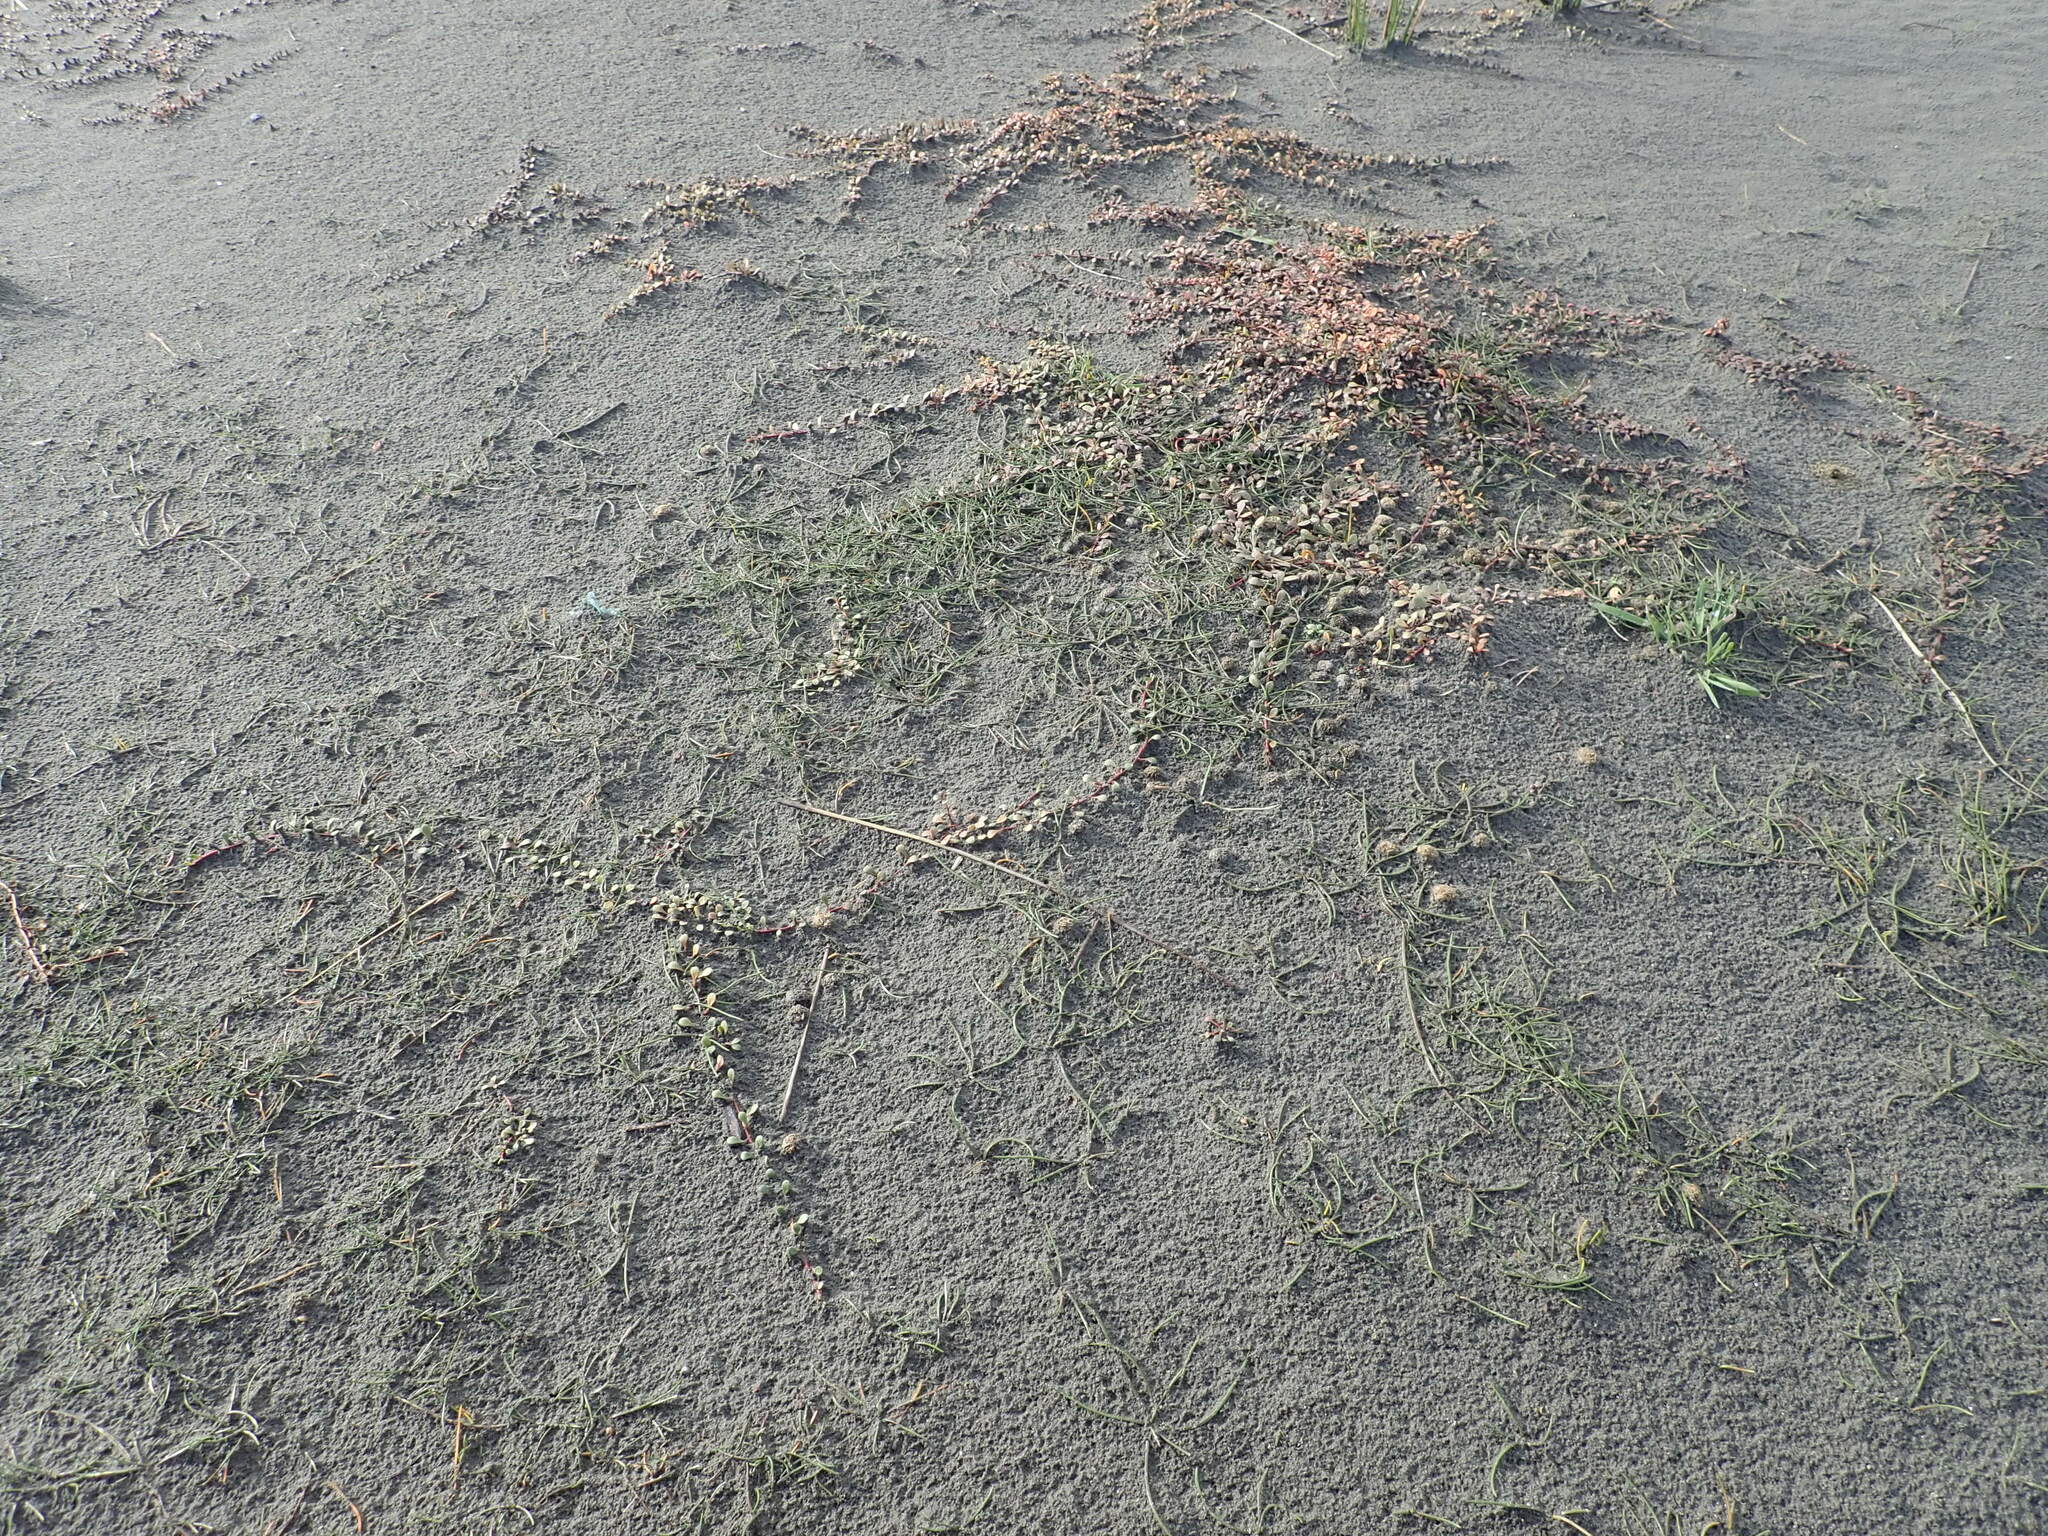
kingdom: Plantae
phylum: Tracheophyta
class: Liliopsida
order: Alismatales
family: Juncaginaceae
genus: Triglochin
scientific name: Triglochin striata
